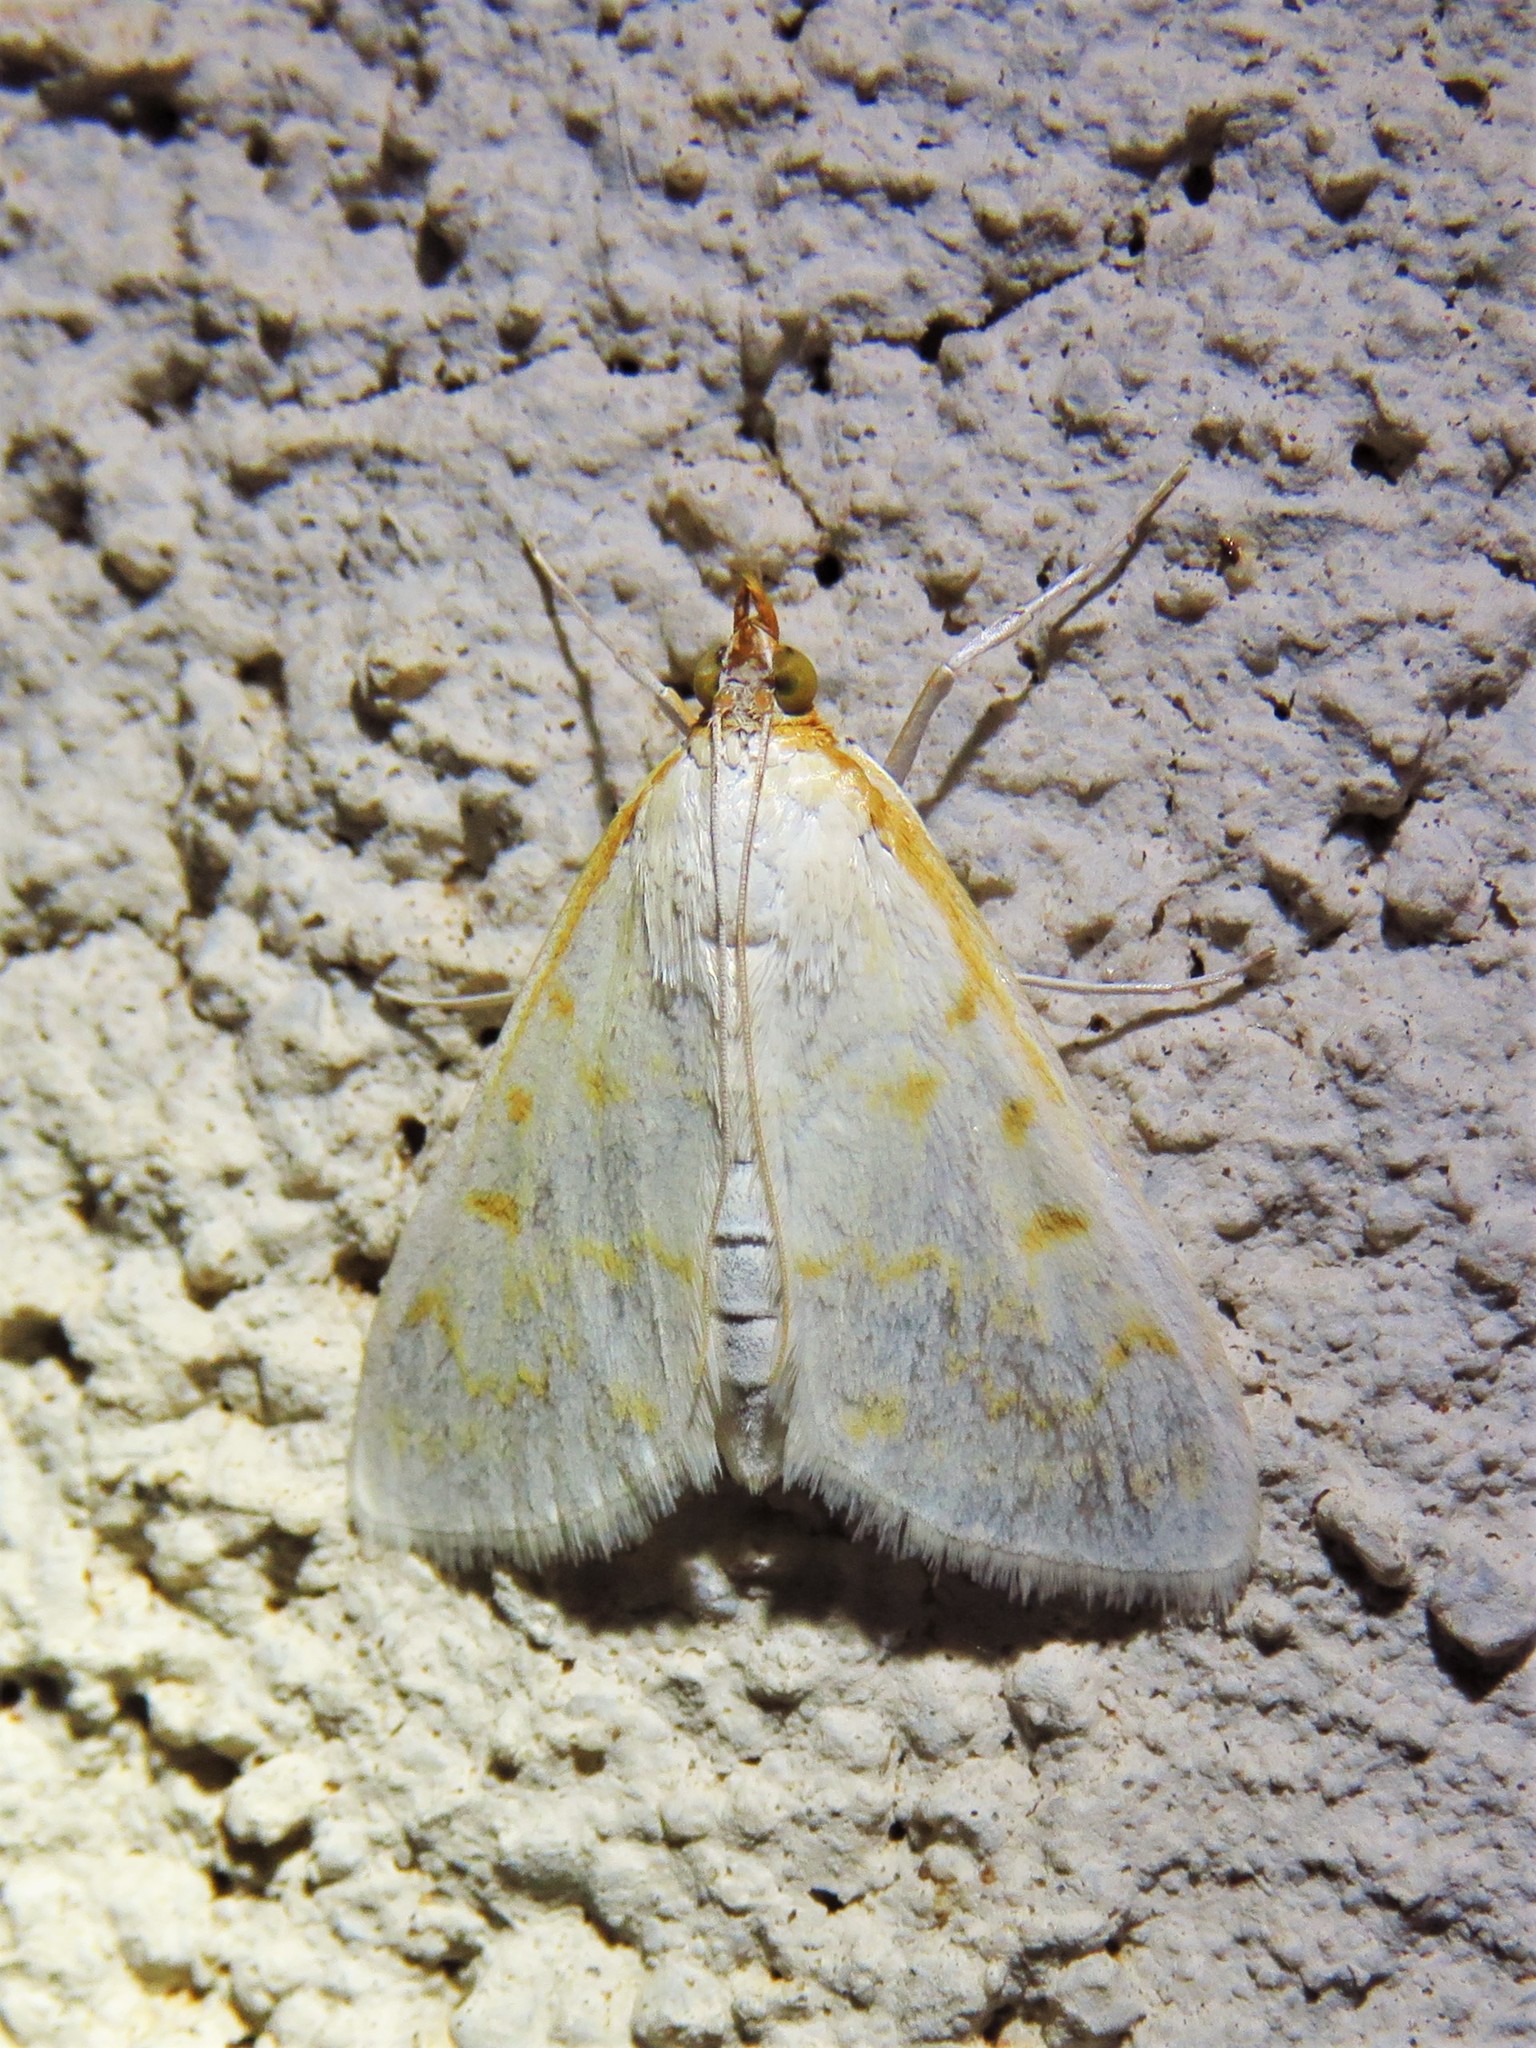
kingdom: Animalia
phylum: Arthropoda
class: Insecta
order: Lepidoptera
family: Crambidae
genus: Hahncappsia
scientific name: Hahncappsia coloradensis
